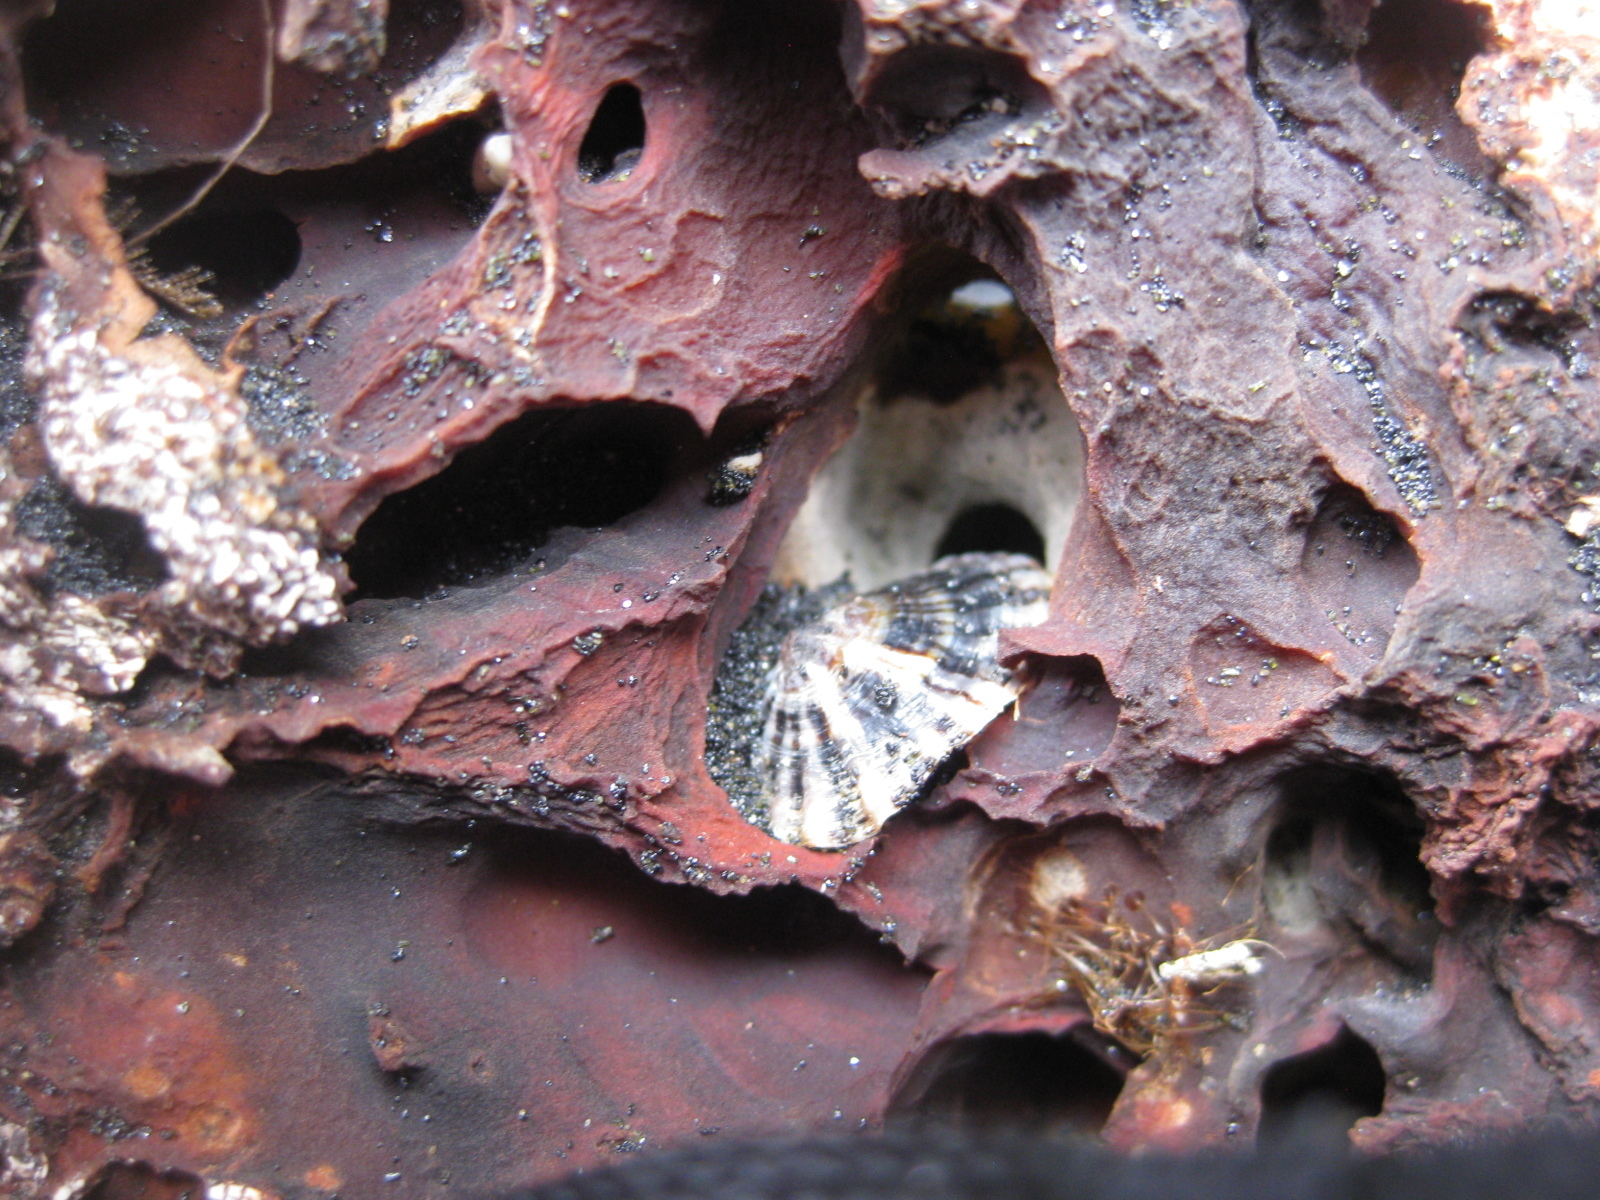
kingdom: Animalia
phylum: Mollusca
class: Gastropoda
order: Siphonariida
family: Siphonariidae
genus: Siphonaria
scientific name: Siphonaria australis
